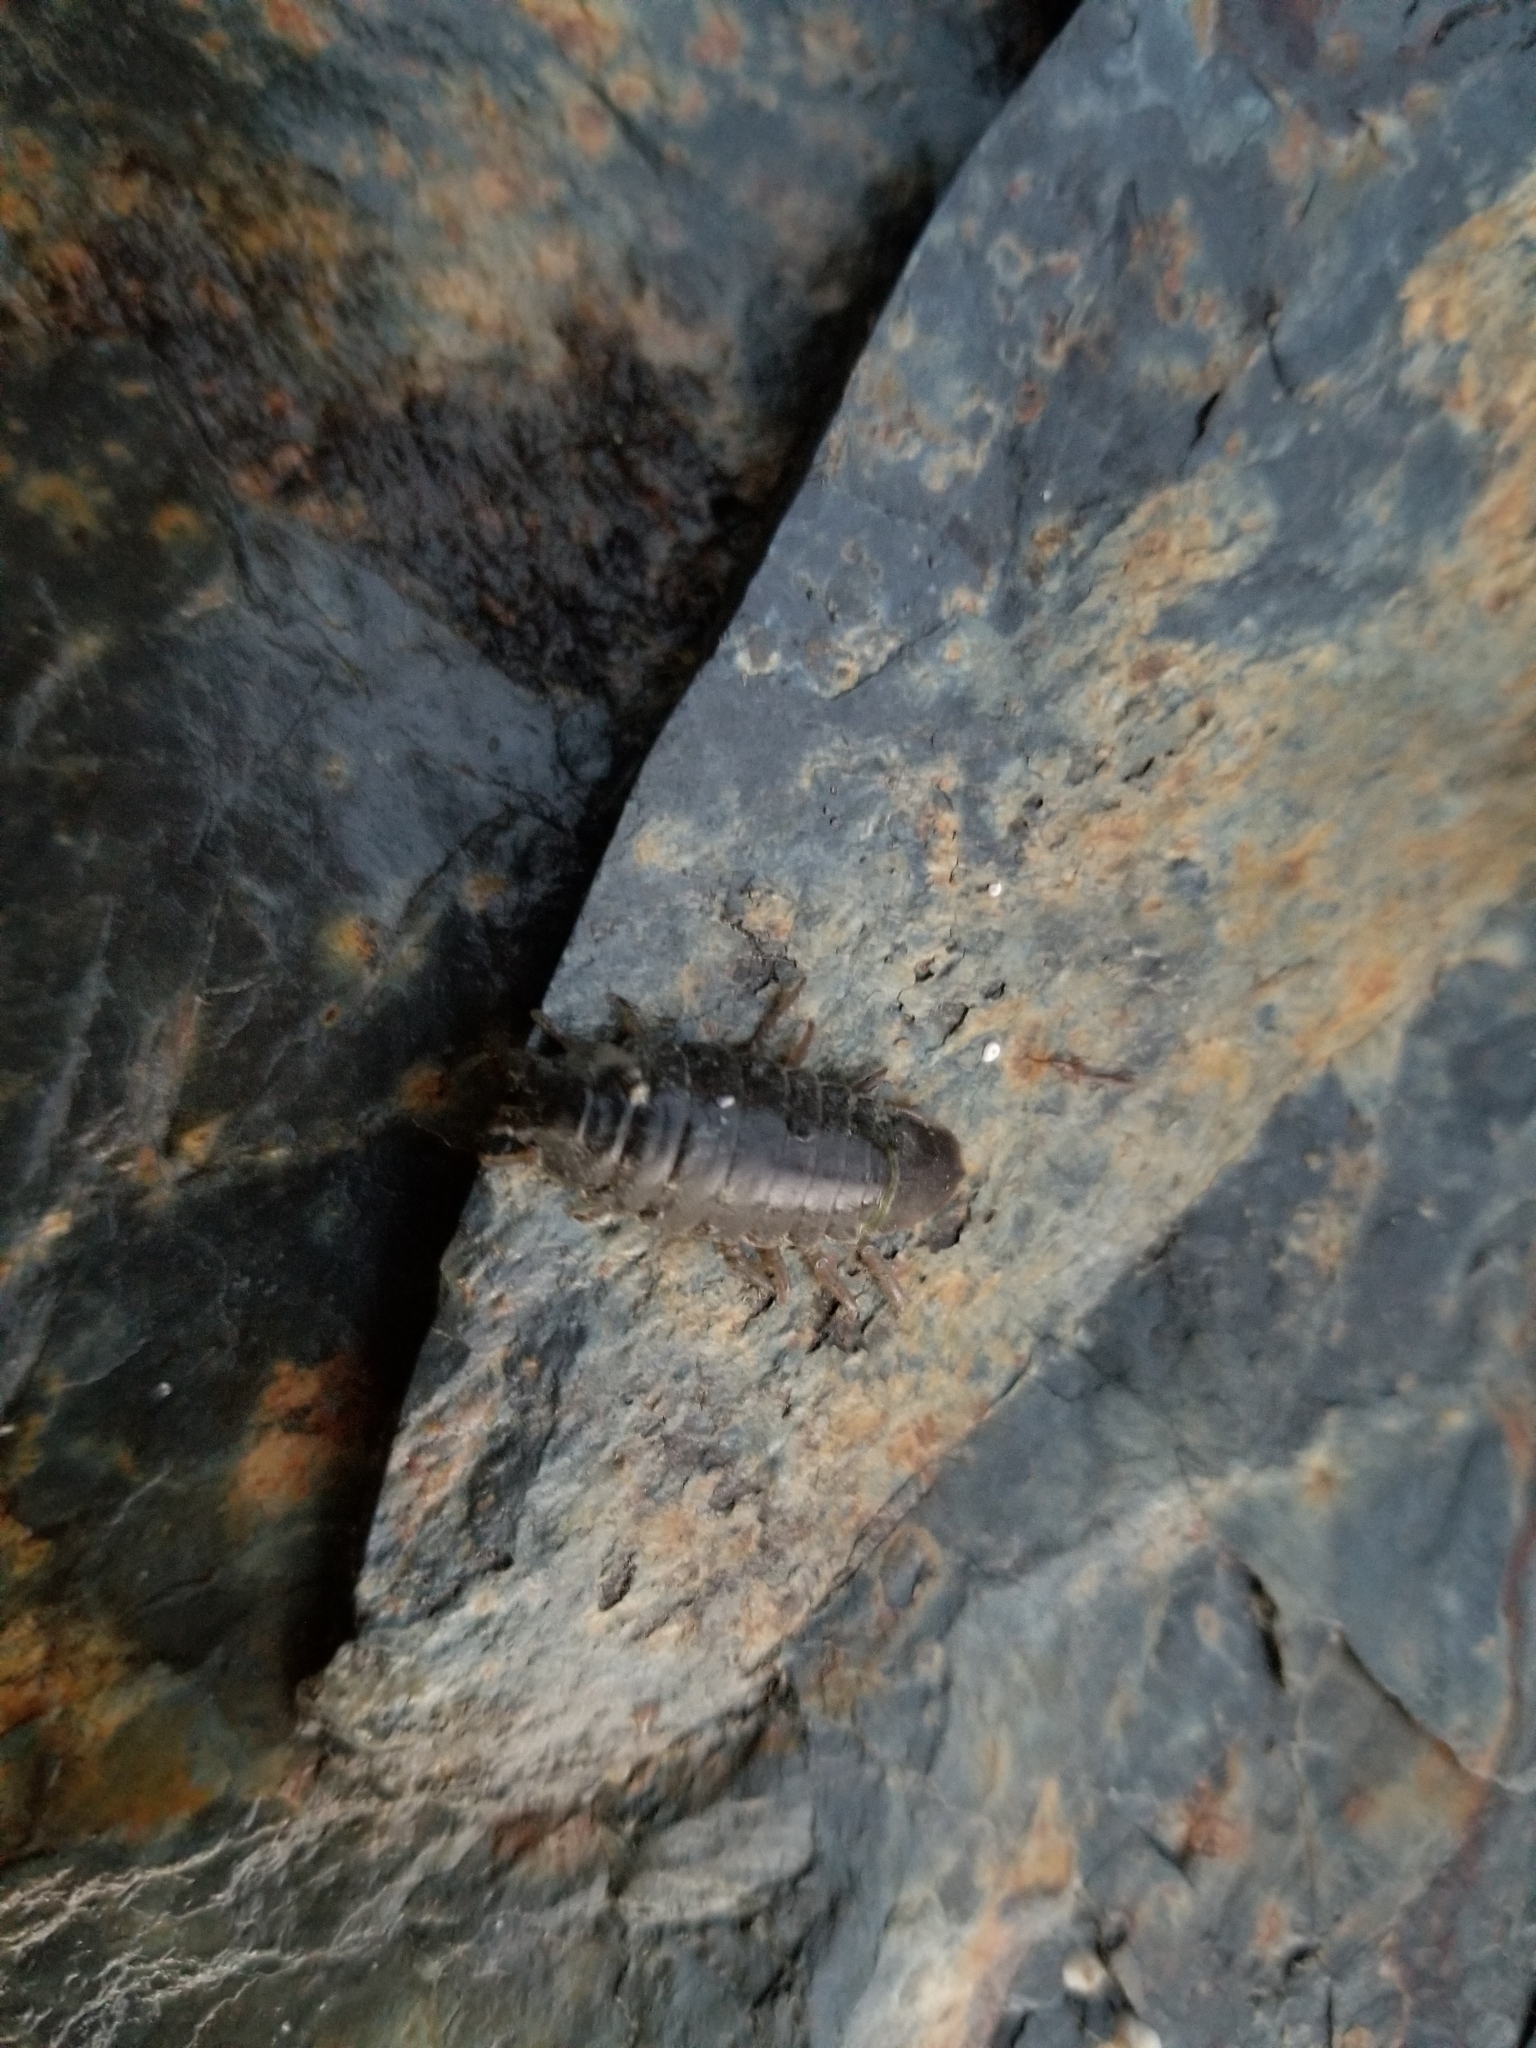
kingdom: Animalia
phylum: Arthropoda
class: Malacostraca
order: Isopoda
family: Idoteidae
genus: Pentidotea
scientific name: Pentidotea wosnesenskii
